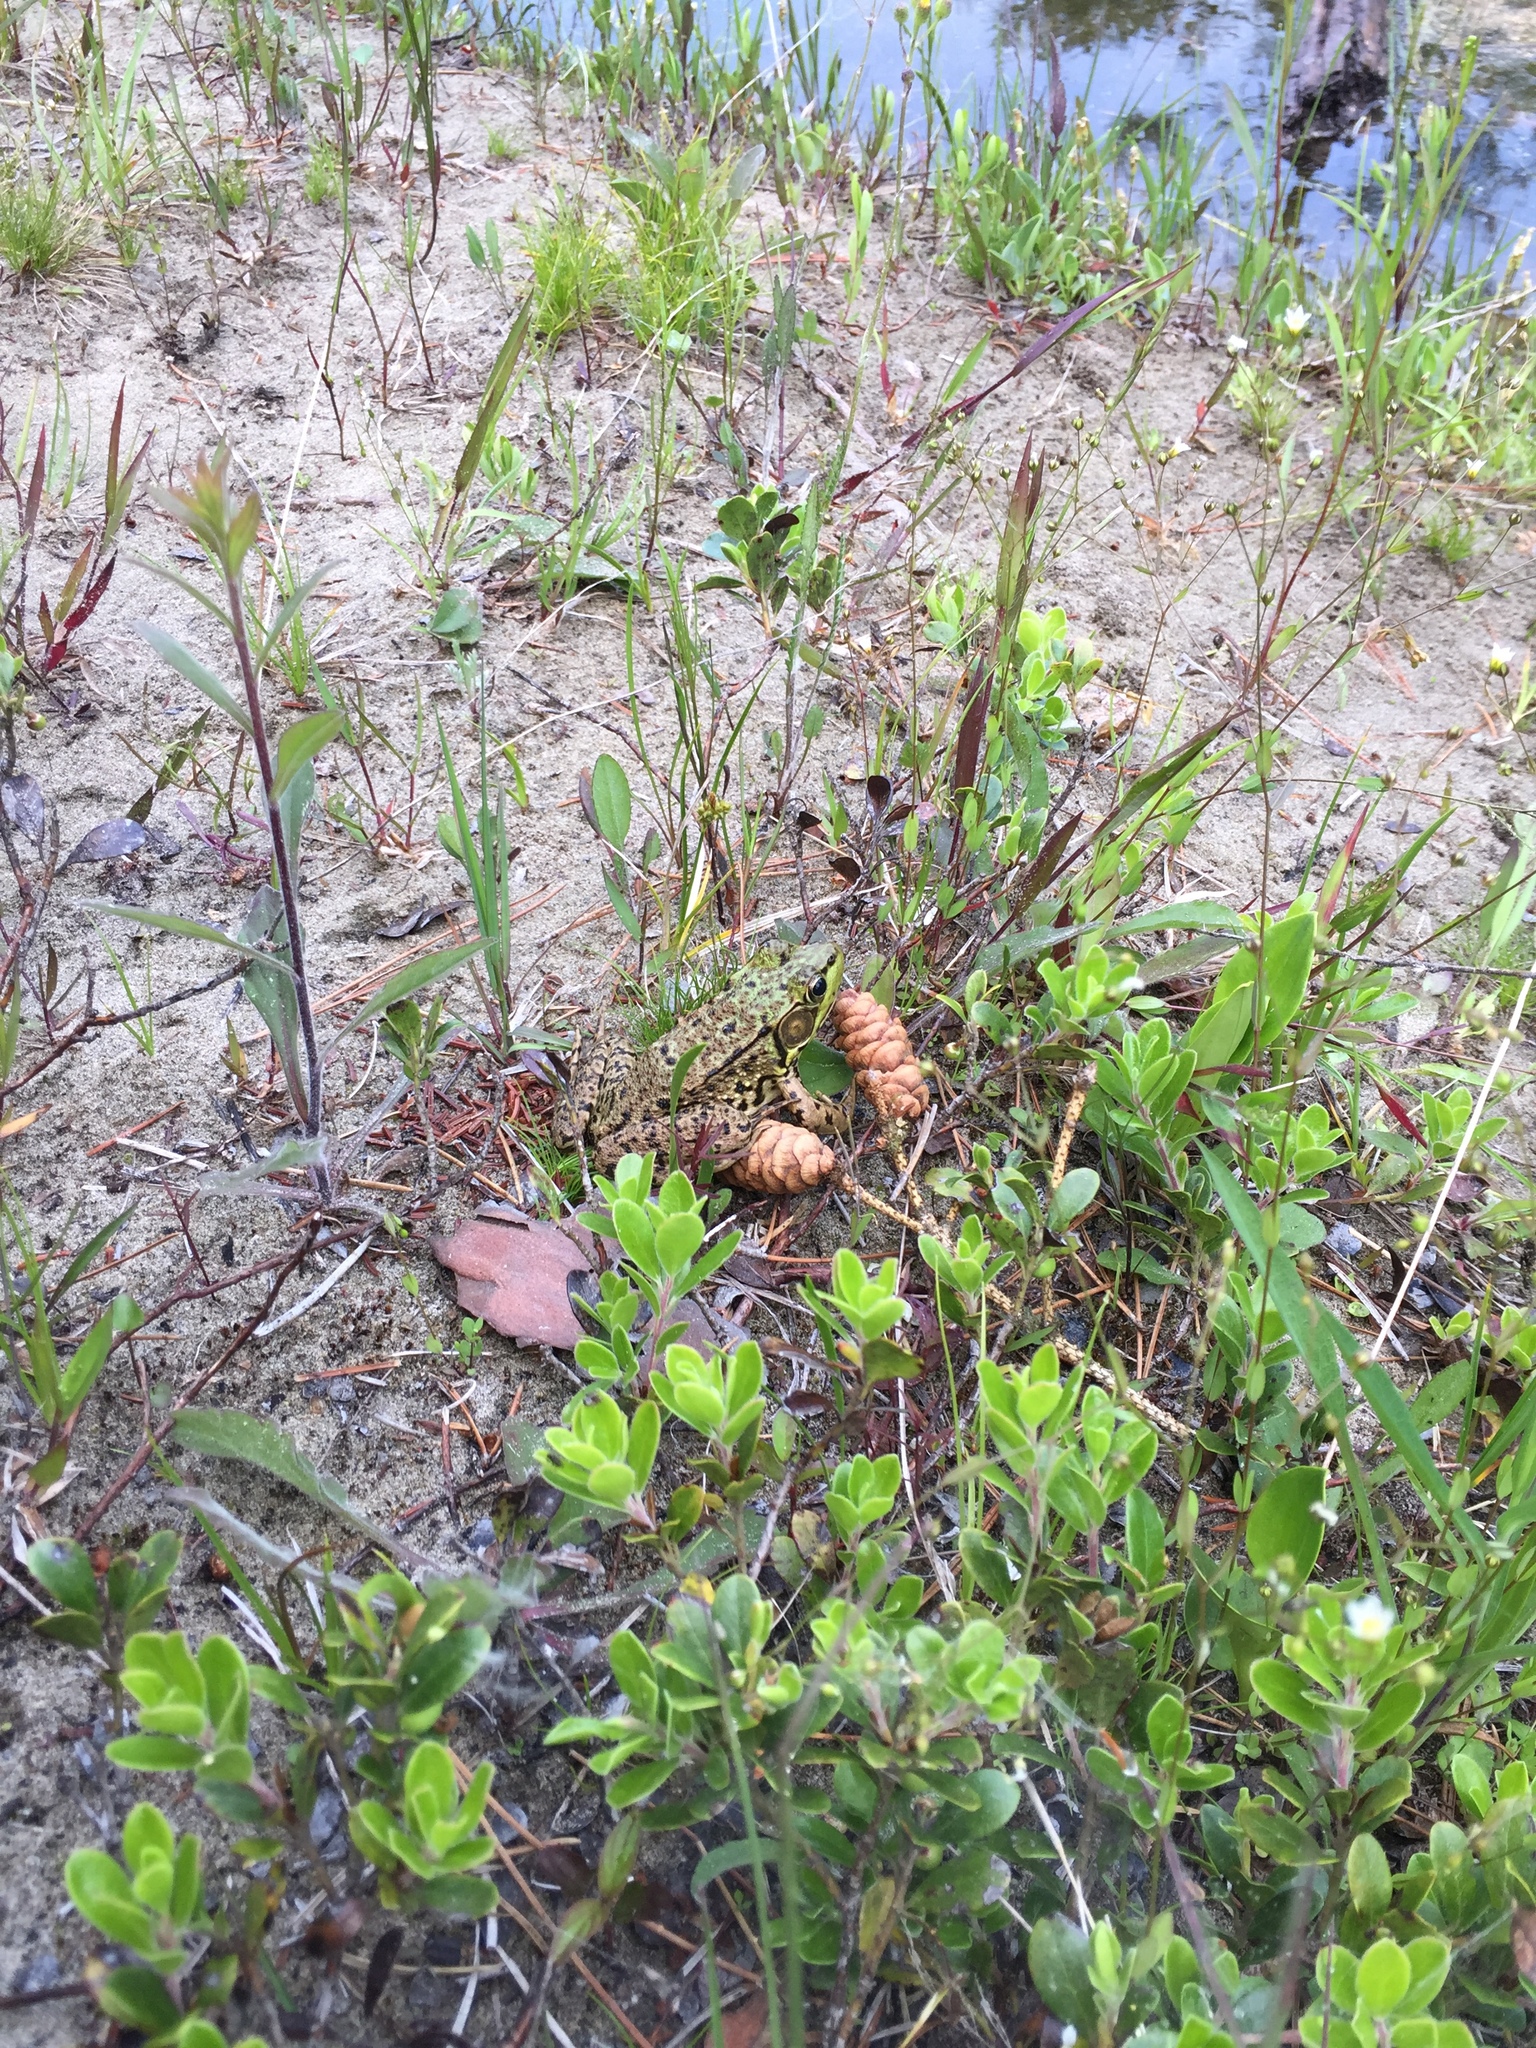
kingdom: Animalia
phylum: Chordata
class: Amphibia
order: Anura
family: Ranidae
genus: Lithobates
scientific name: Lithobates clamitans
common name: Green frog
